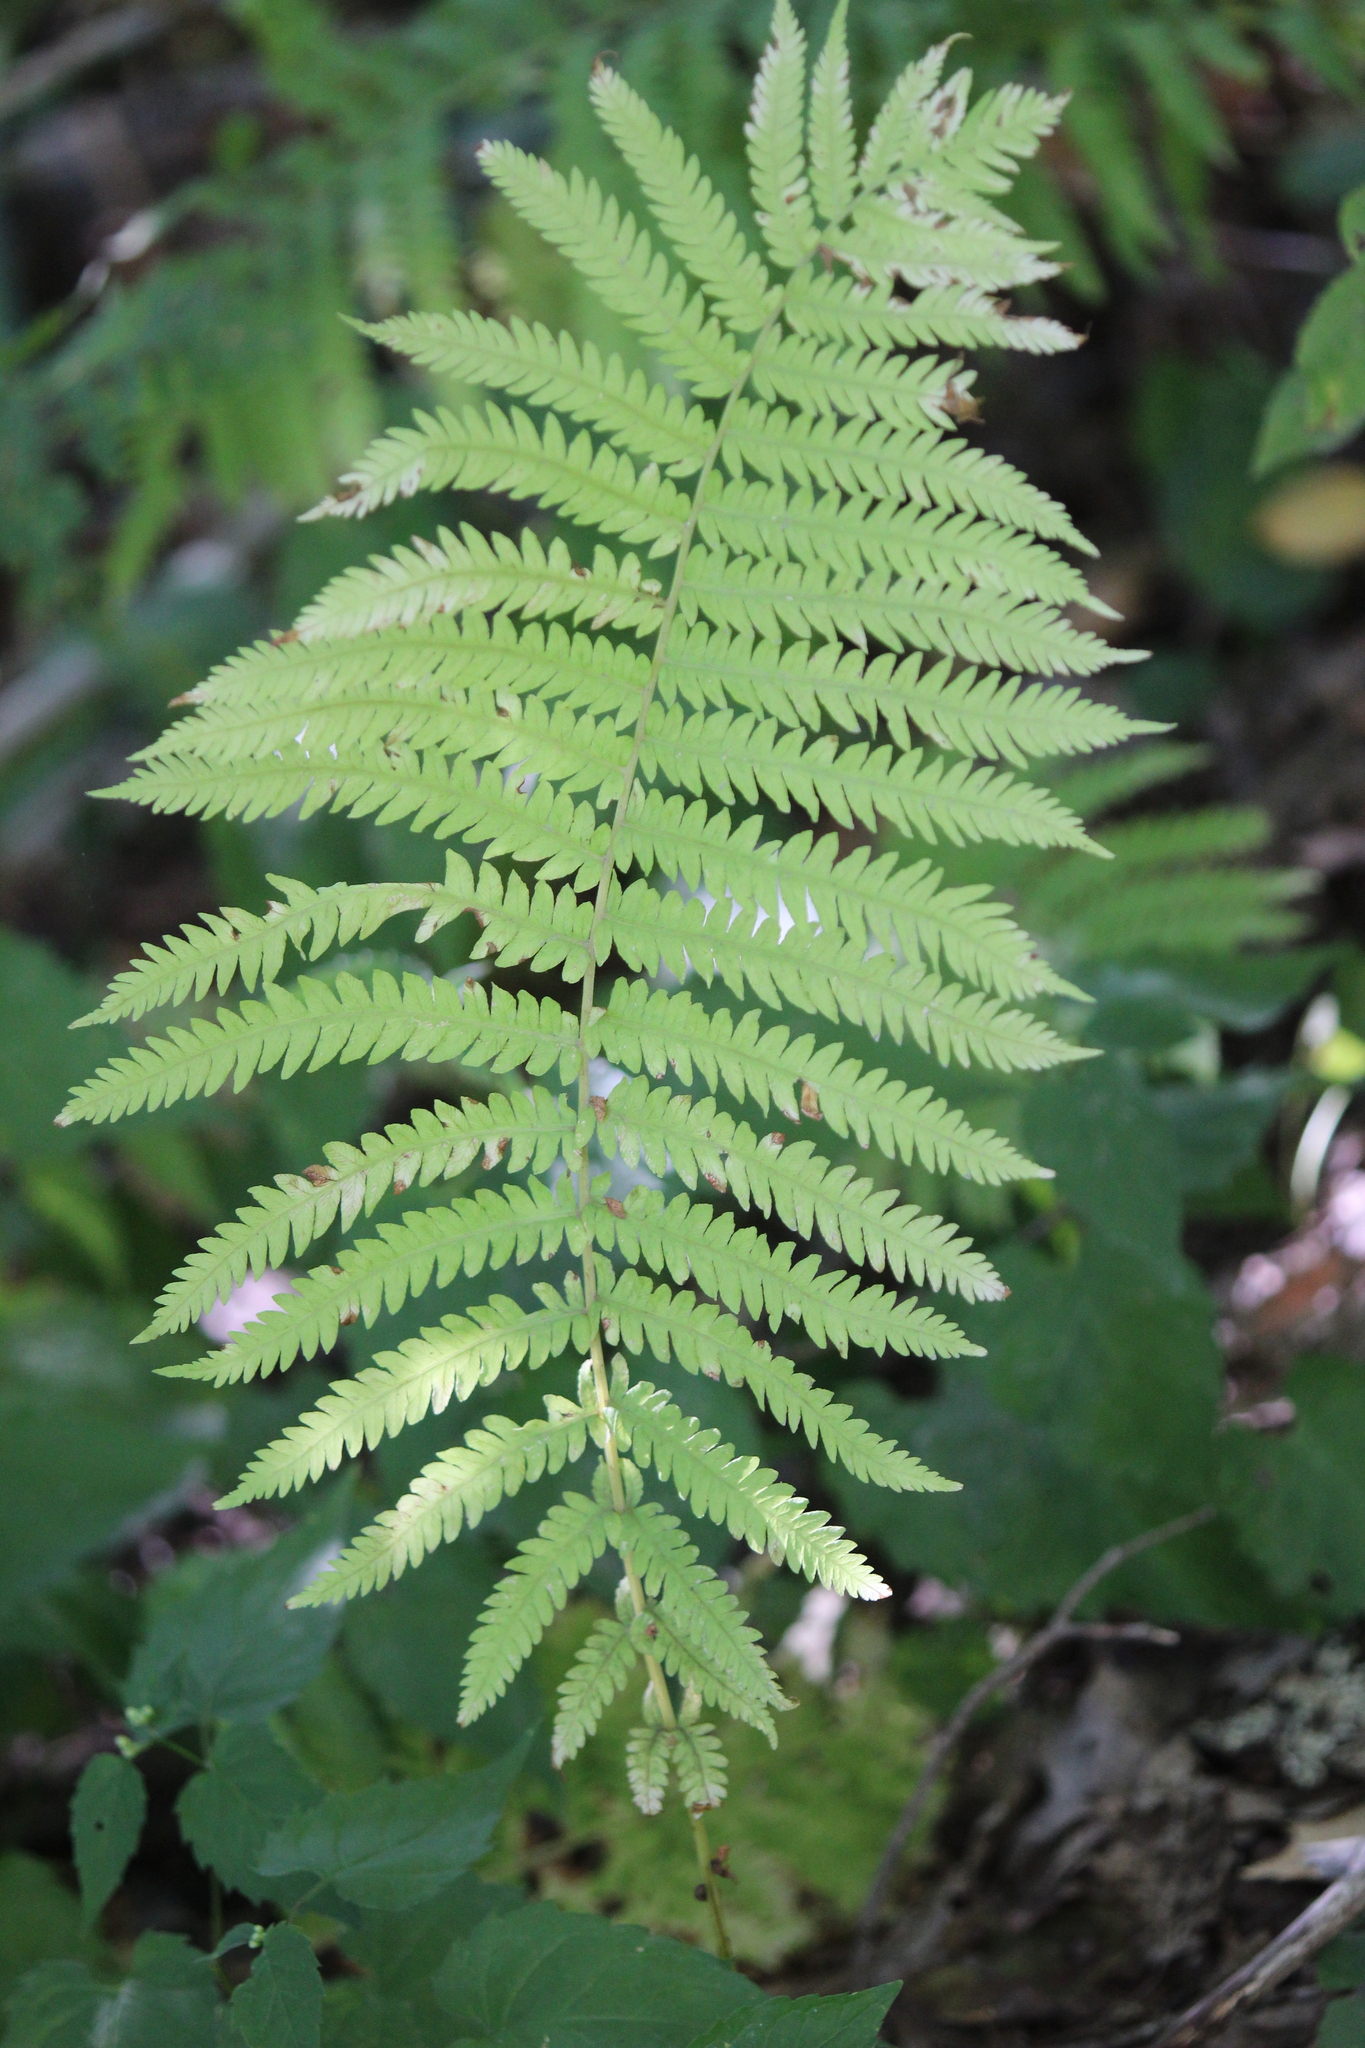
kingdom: Plantae
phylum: Tracheophyta
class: Polypodiopsida
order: Polypodiales
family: Onocleaceae
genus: Matteuccia
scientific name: Matteuccia struthiopteris
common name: Ostrich fern
